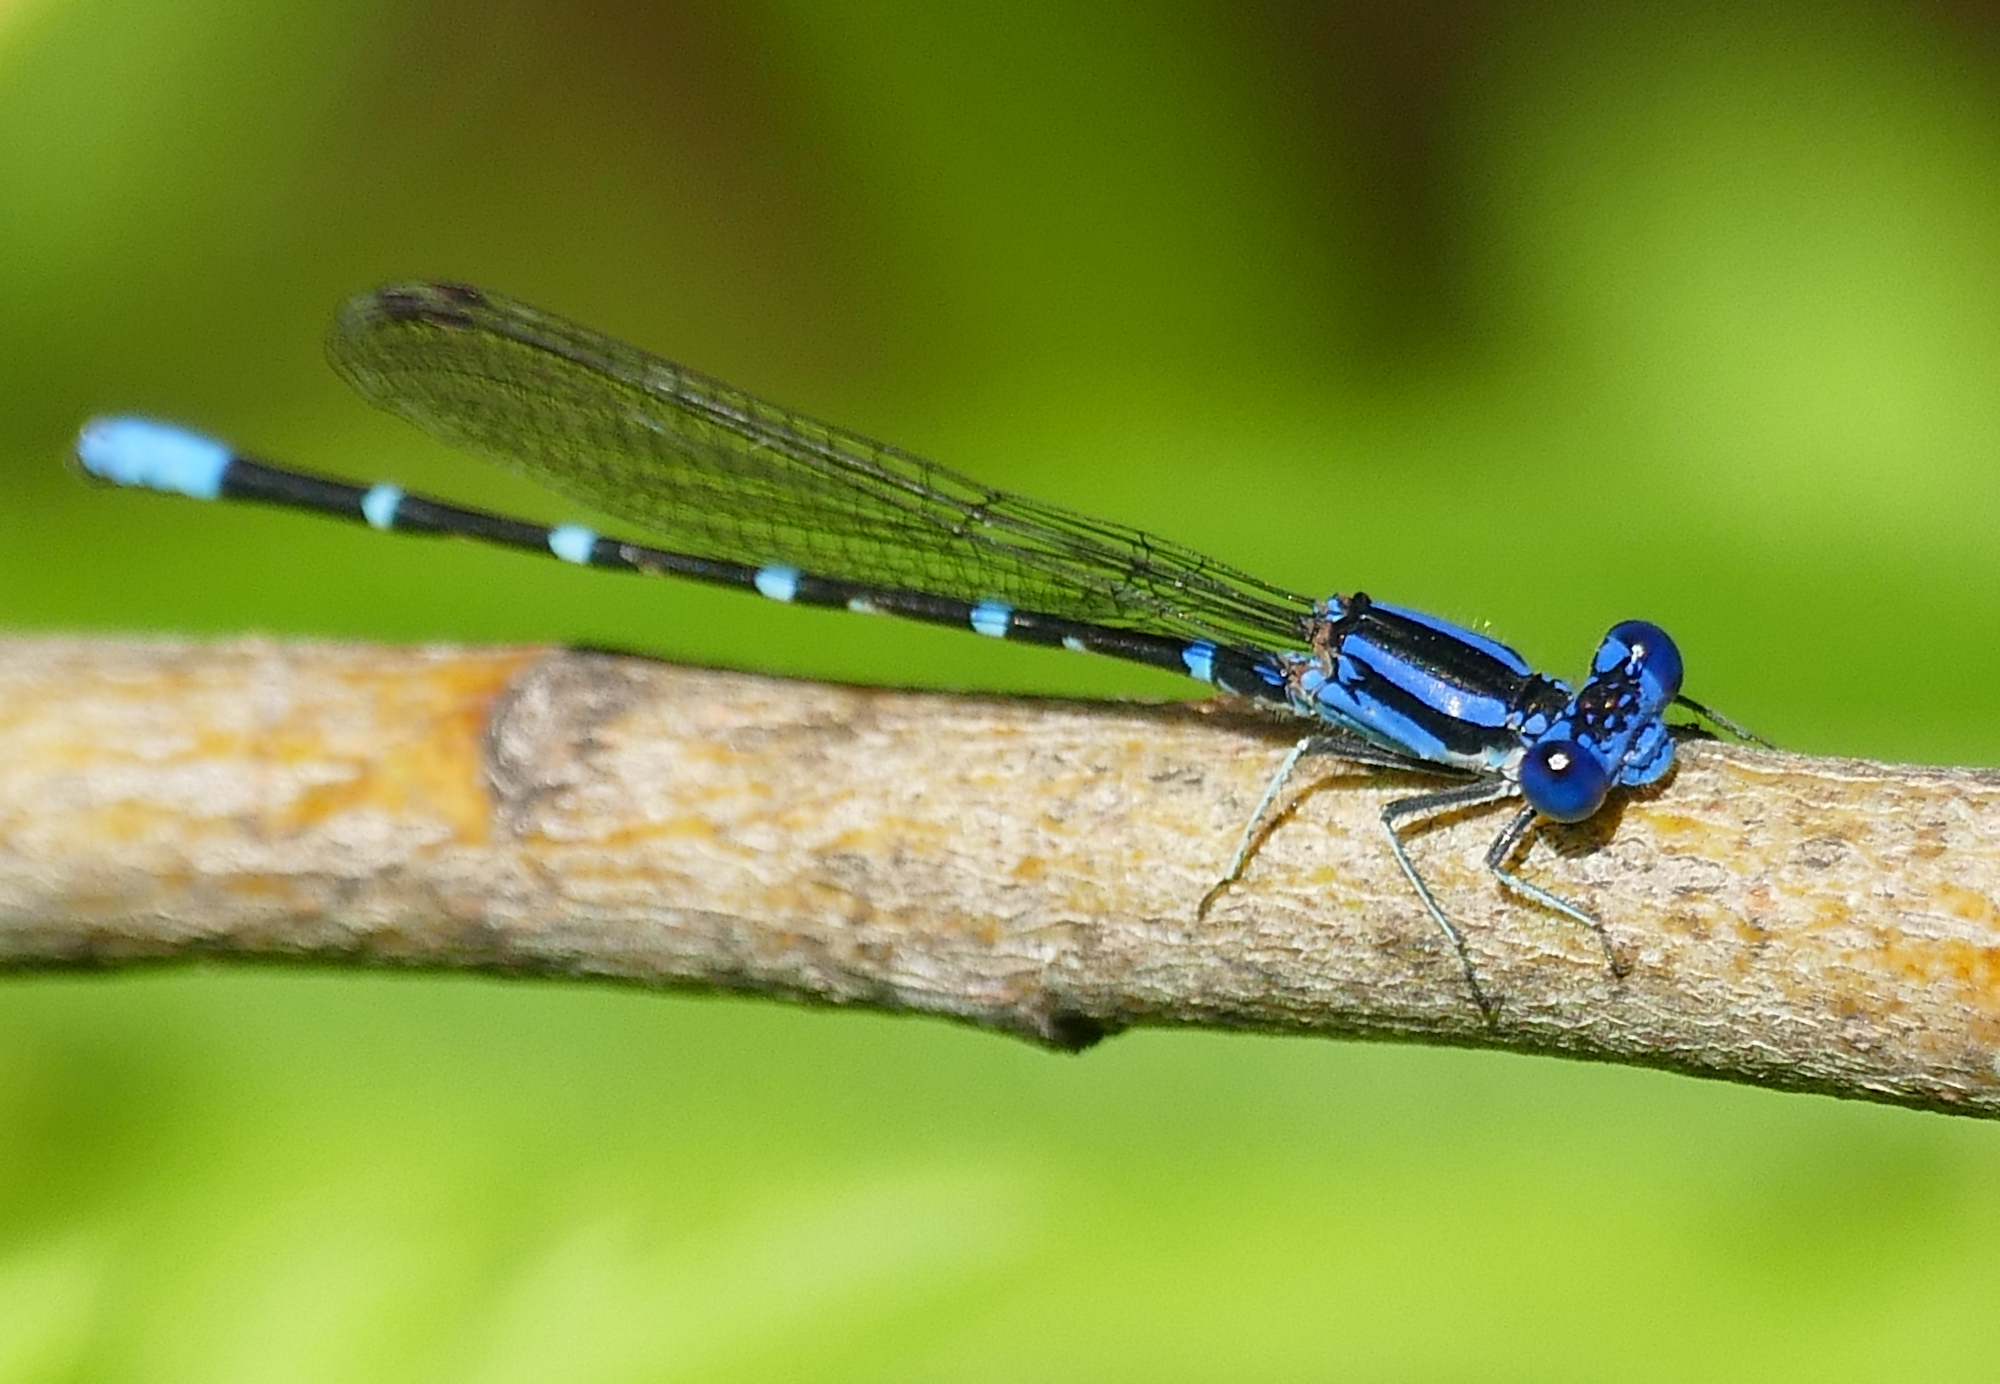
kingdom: Animalia
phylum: Arthropoda
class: Insecta
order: Odonata
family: Coenagrionidae
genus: Argia
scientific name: Argia sedula
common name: Blue-ringed dancer
